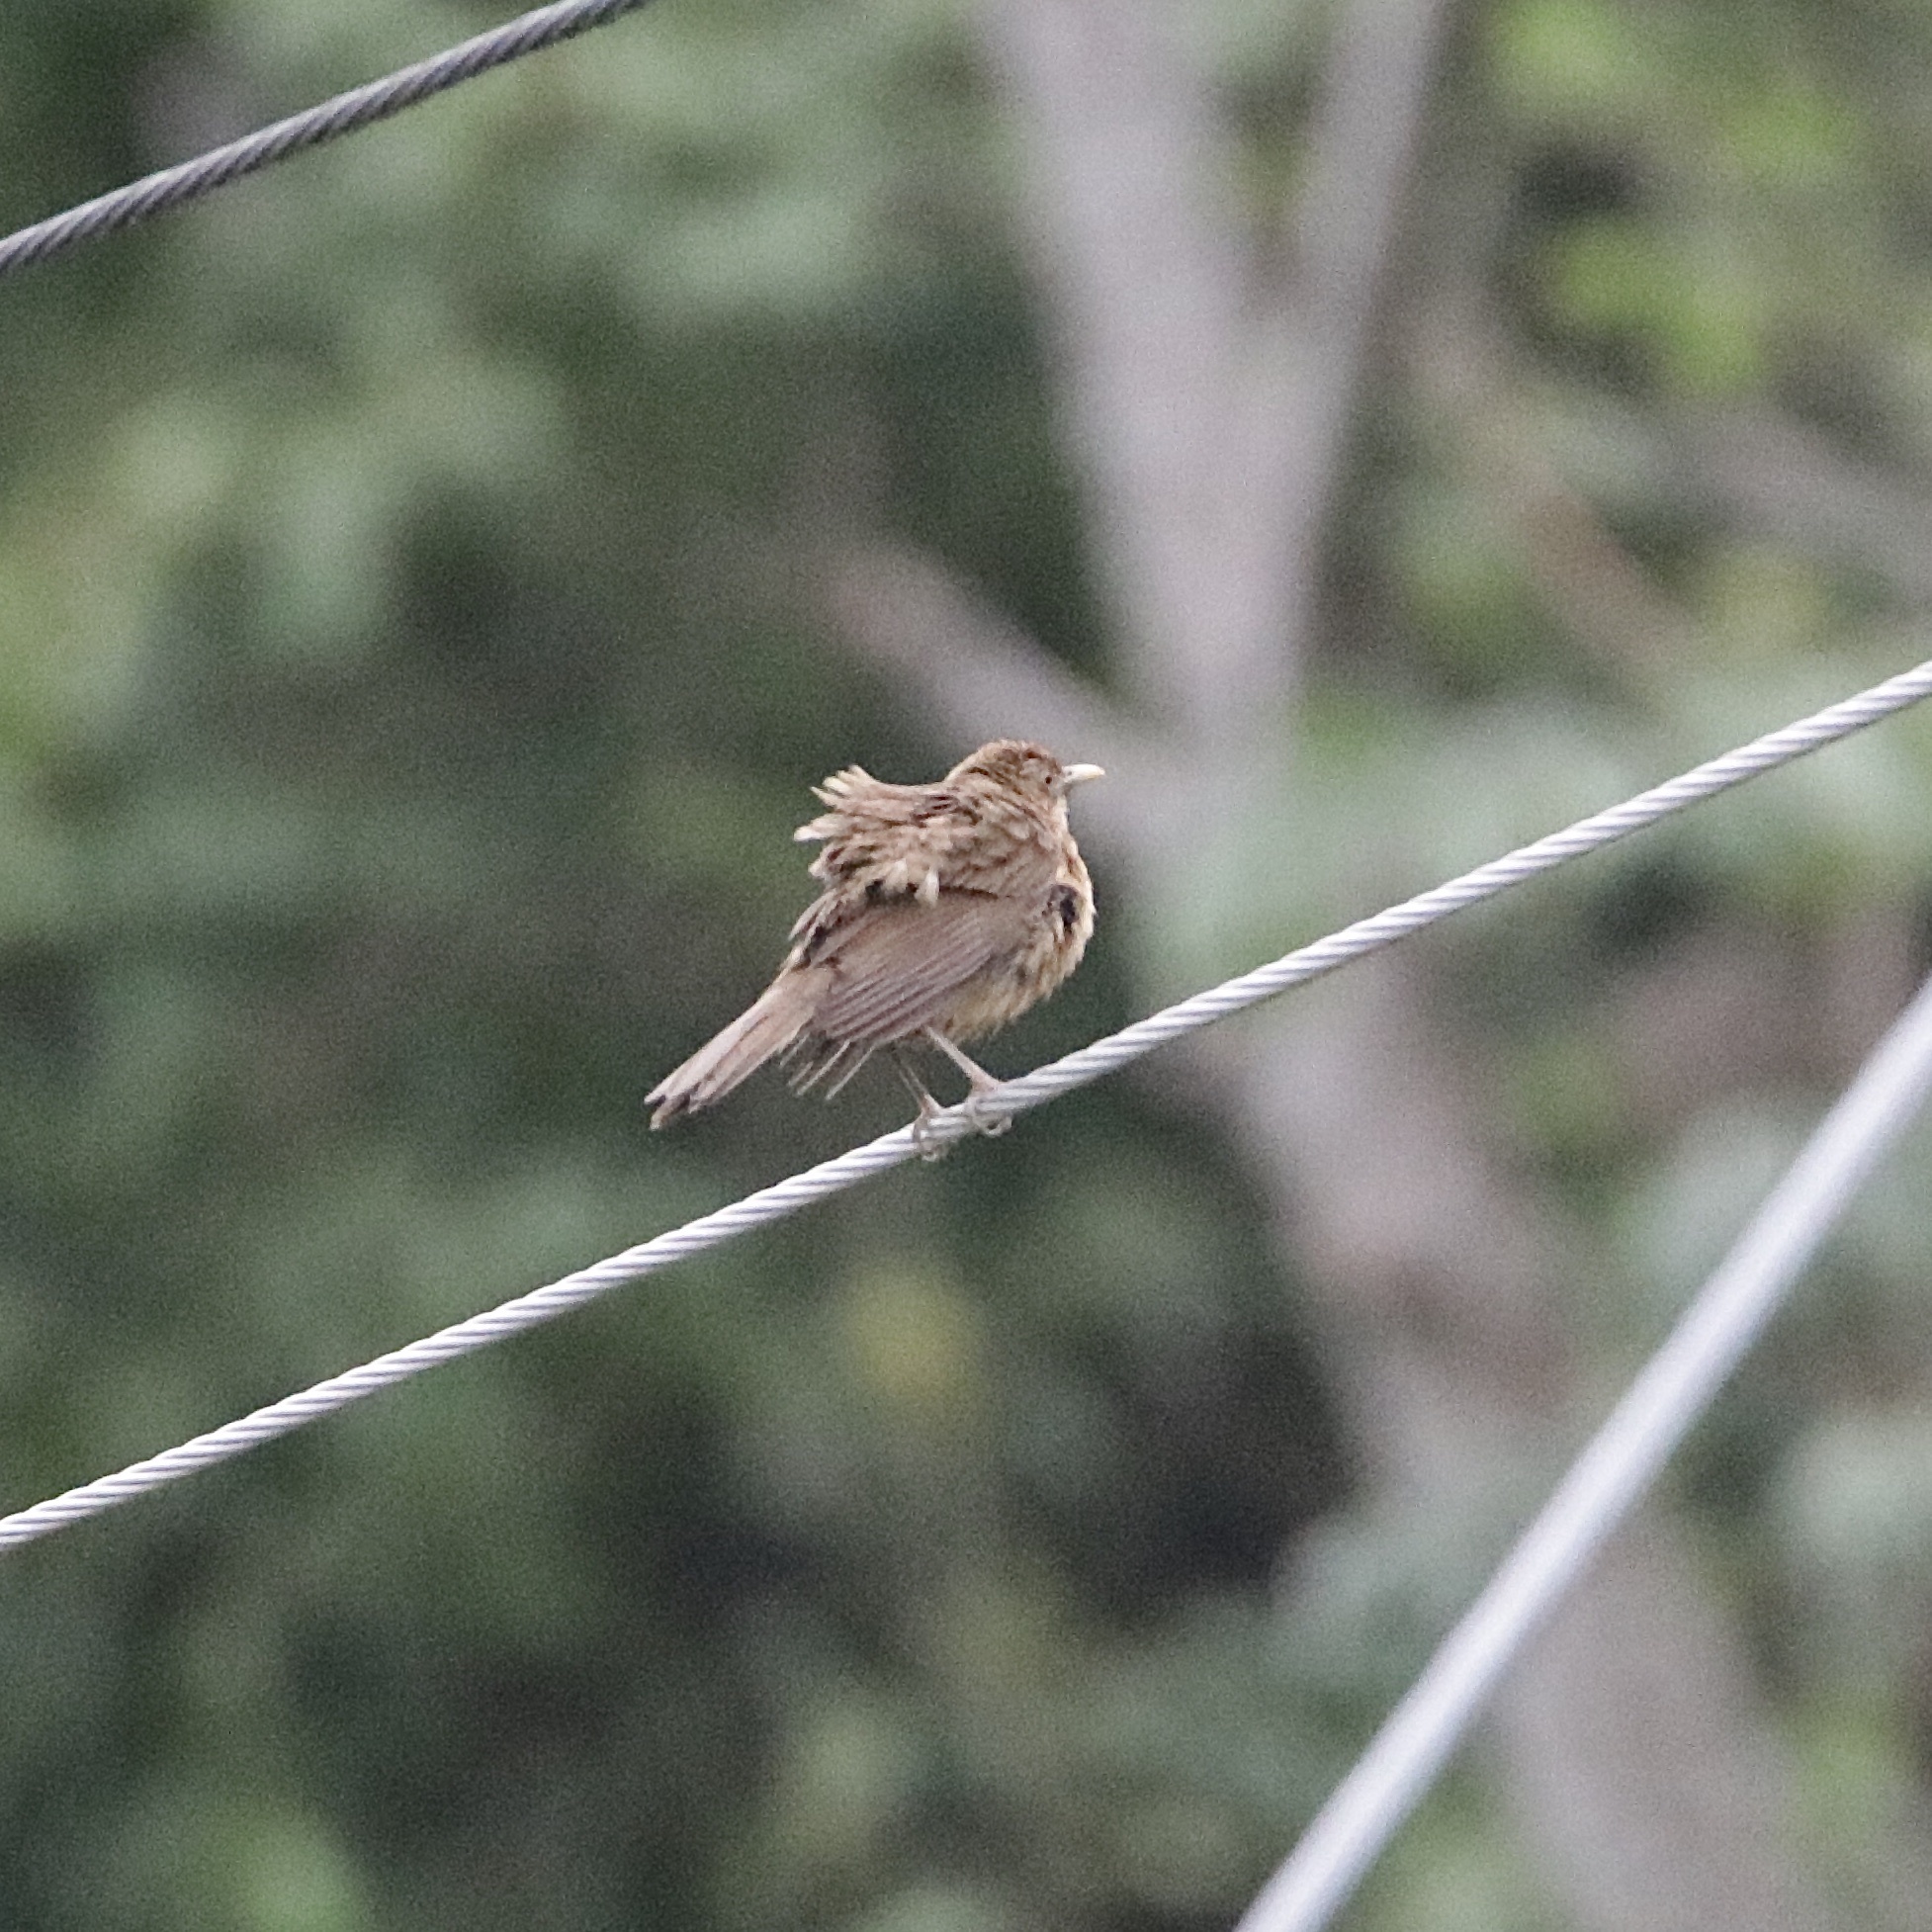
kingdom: Animalia
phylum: Chordata
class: Aves
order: Passeriformes
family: Turdidae
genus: Turdus
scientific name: Turdus grayi
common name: Clay-colored thrush
